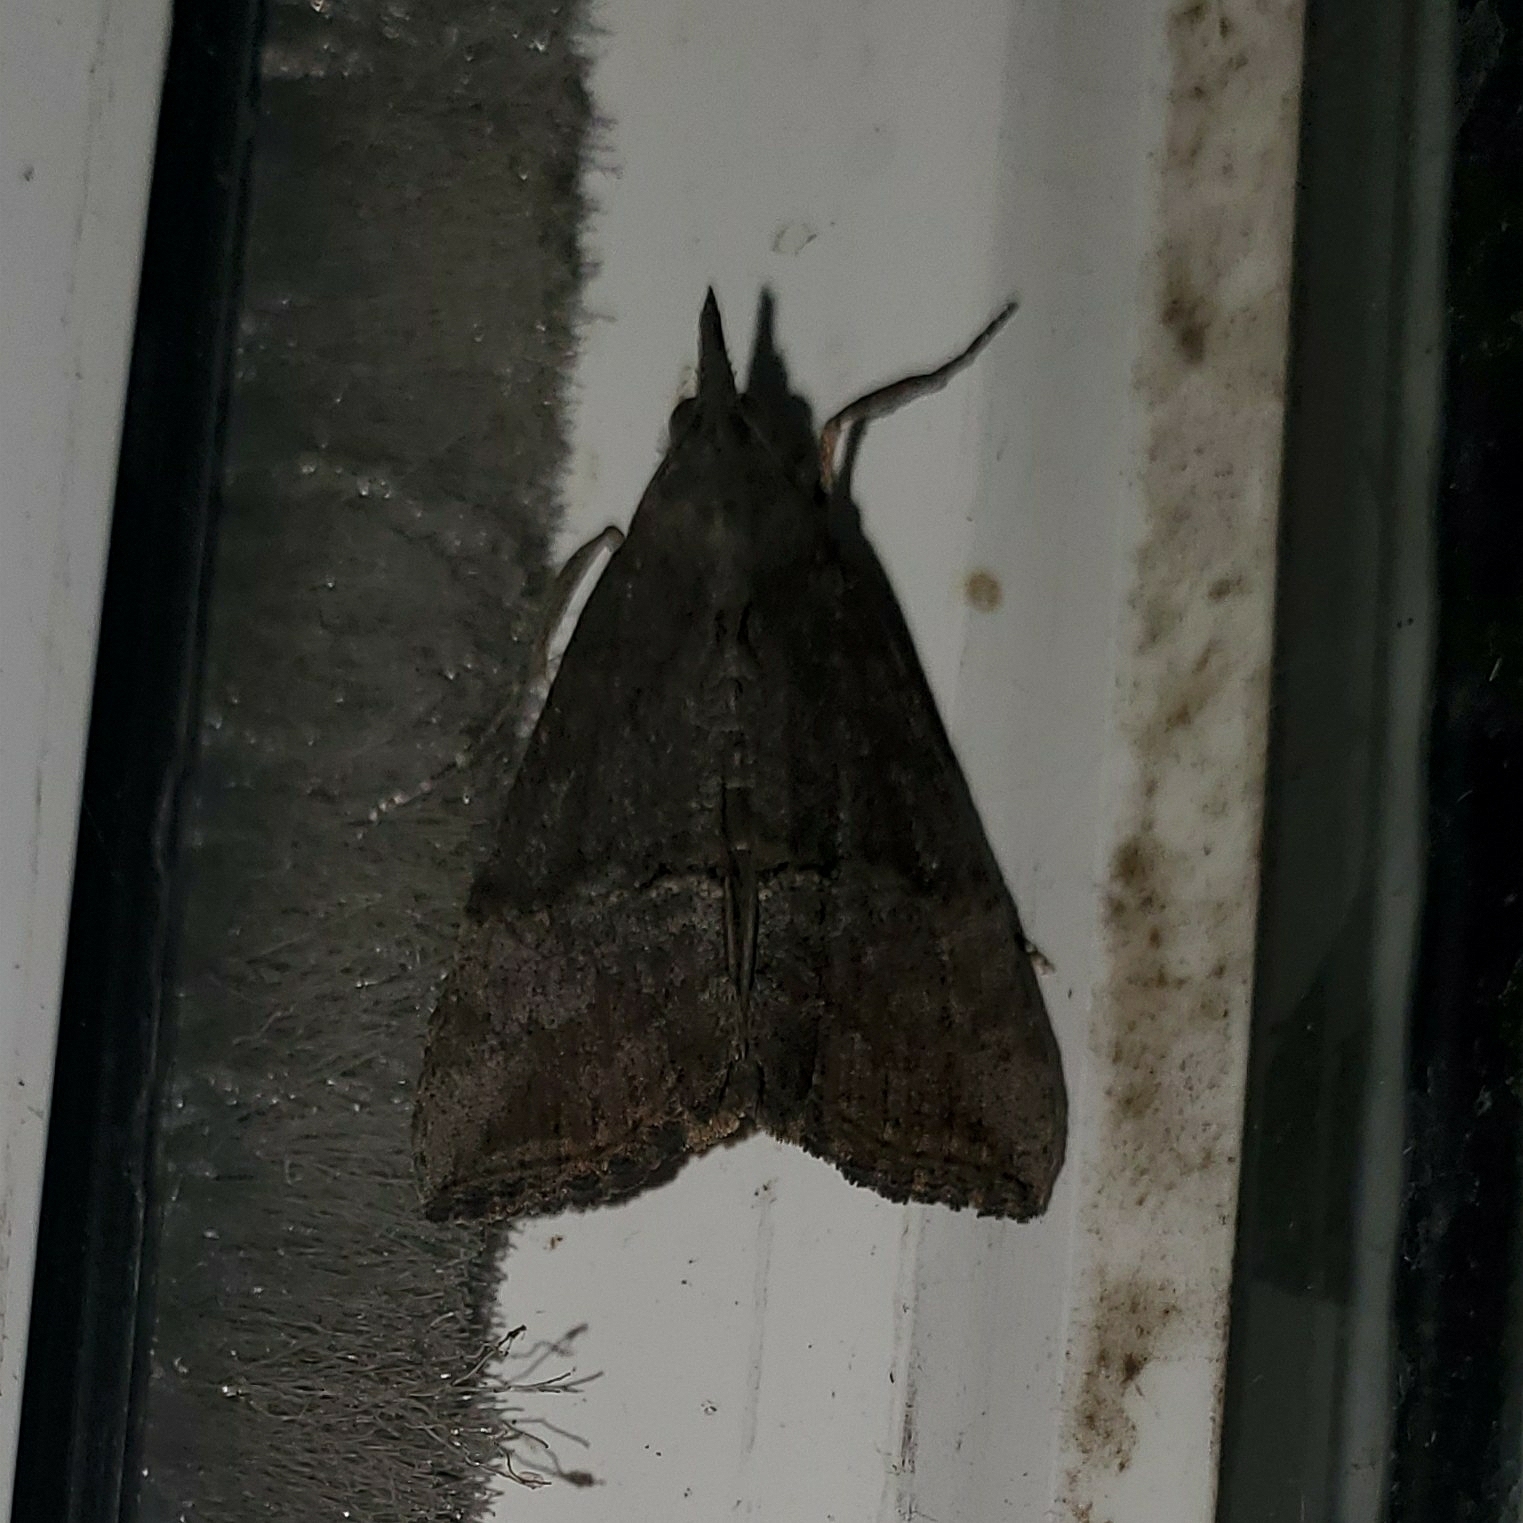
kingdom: Animalia
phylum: Arthropoda
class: Insecta
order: Lepidoptera
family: Erebidae
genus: Hypena
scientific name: Hypena scabra
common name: Green cloverworm
